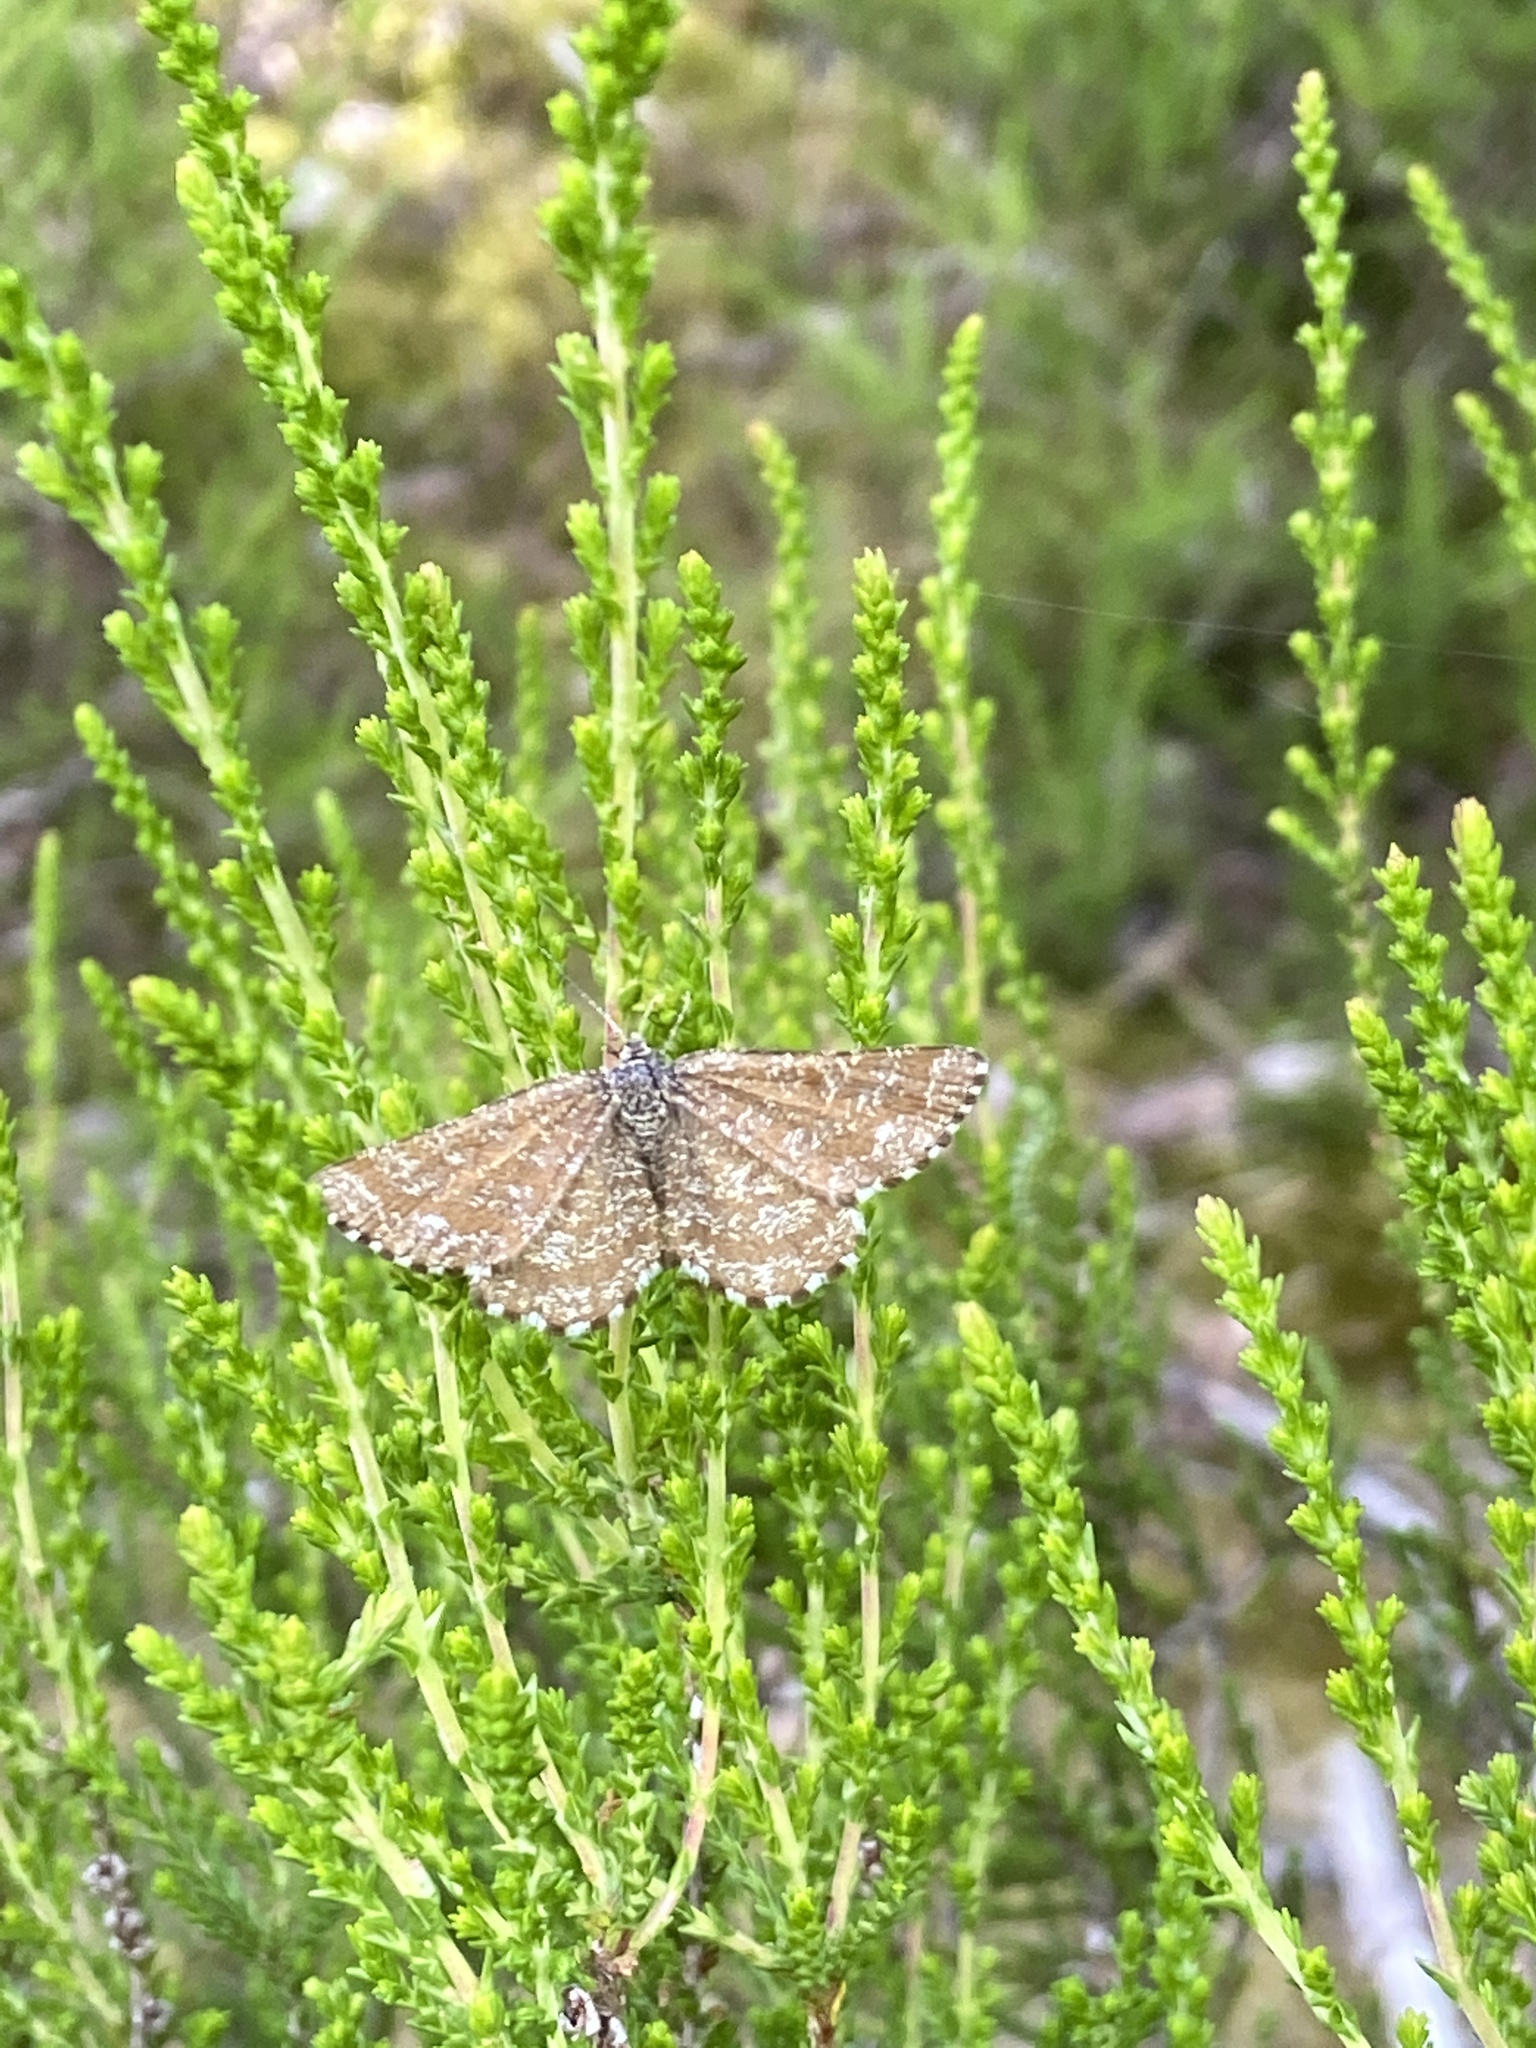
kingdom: Animalia
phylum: Arthropoda
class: Insecta
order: Lepidoptera
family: Geometridae
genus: Ematurga
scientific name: Ematurga atomaria
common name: Common heath
